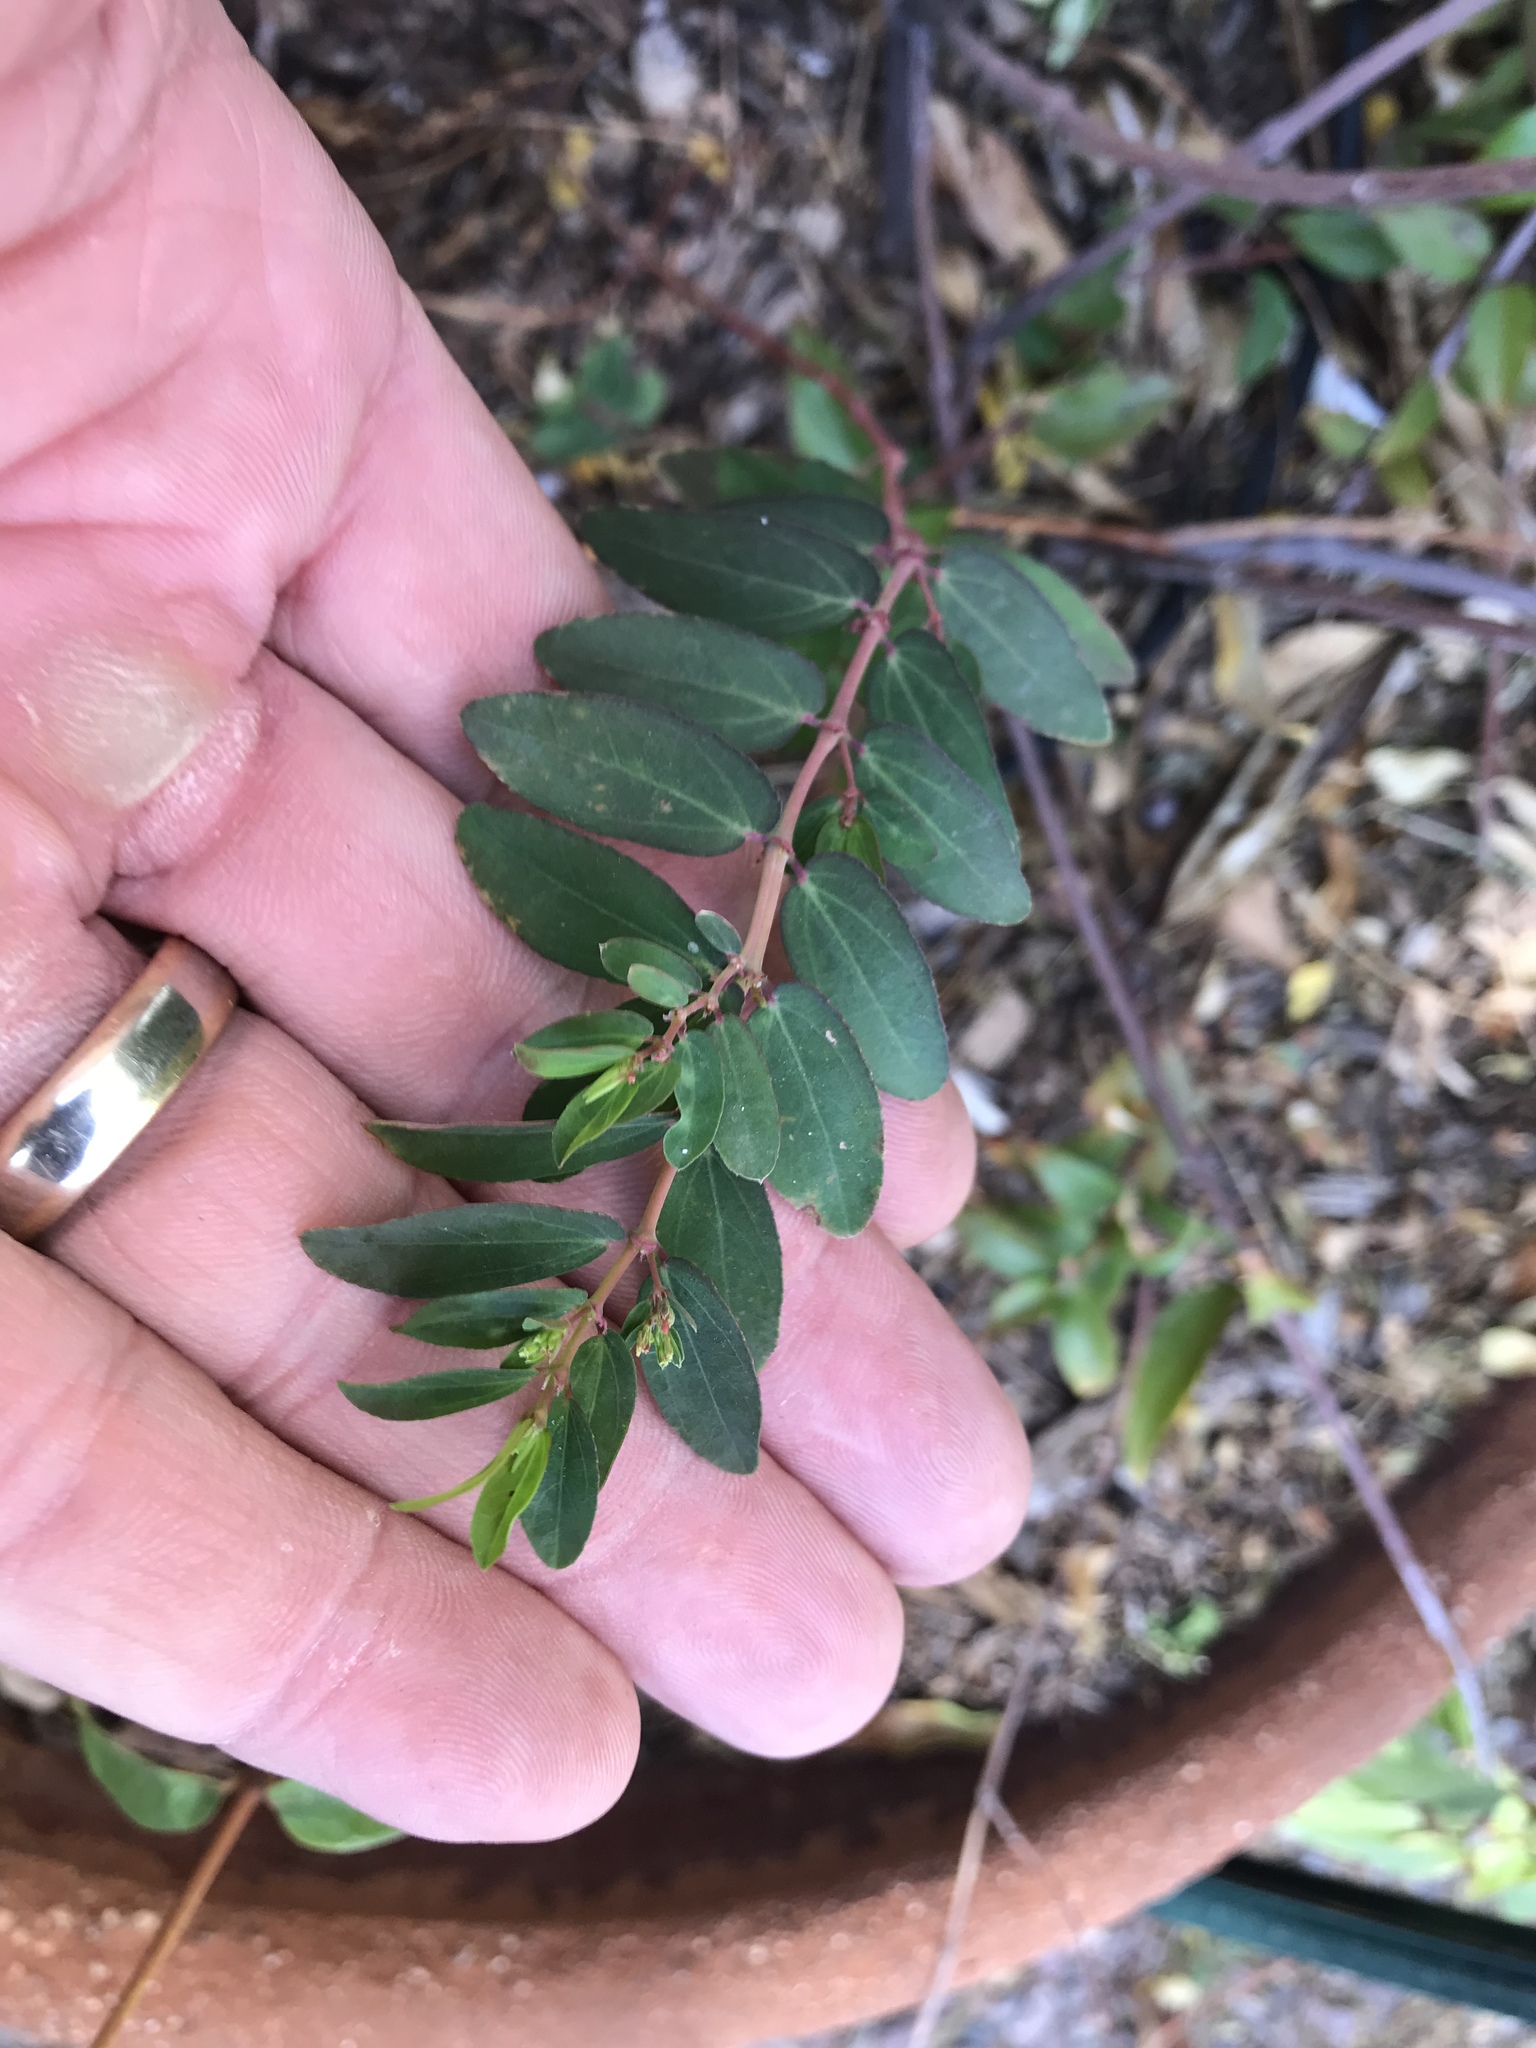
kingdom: Plantae
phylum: Tracheophyta
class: Magnoliopsida
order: Malpighiales
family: Euphorbiaceae
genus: Euphorbia
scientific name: Euphorbia hyssopifolia
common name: Hyssopleaf sandmat
